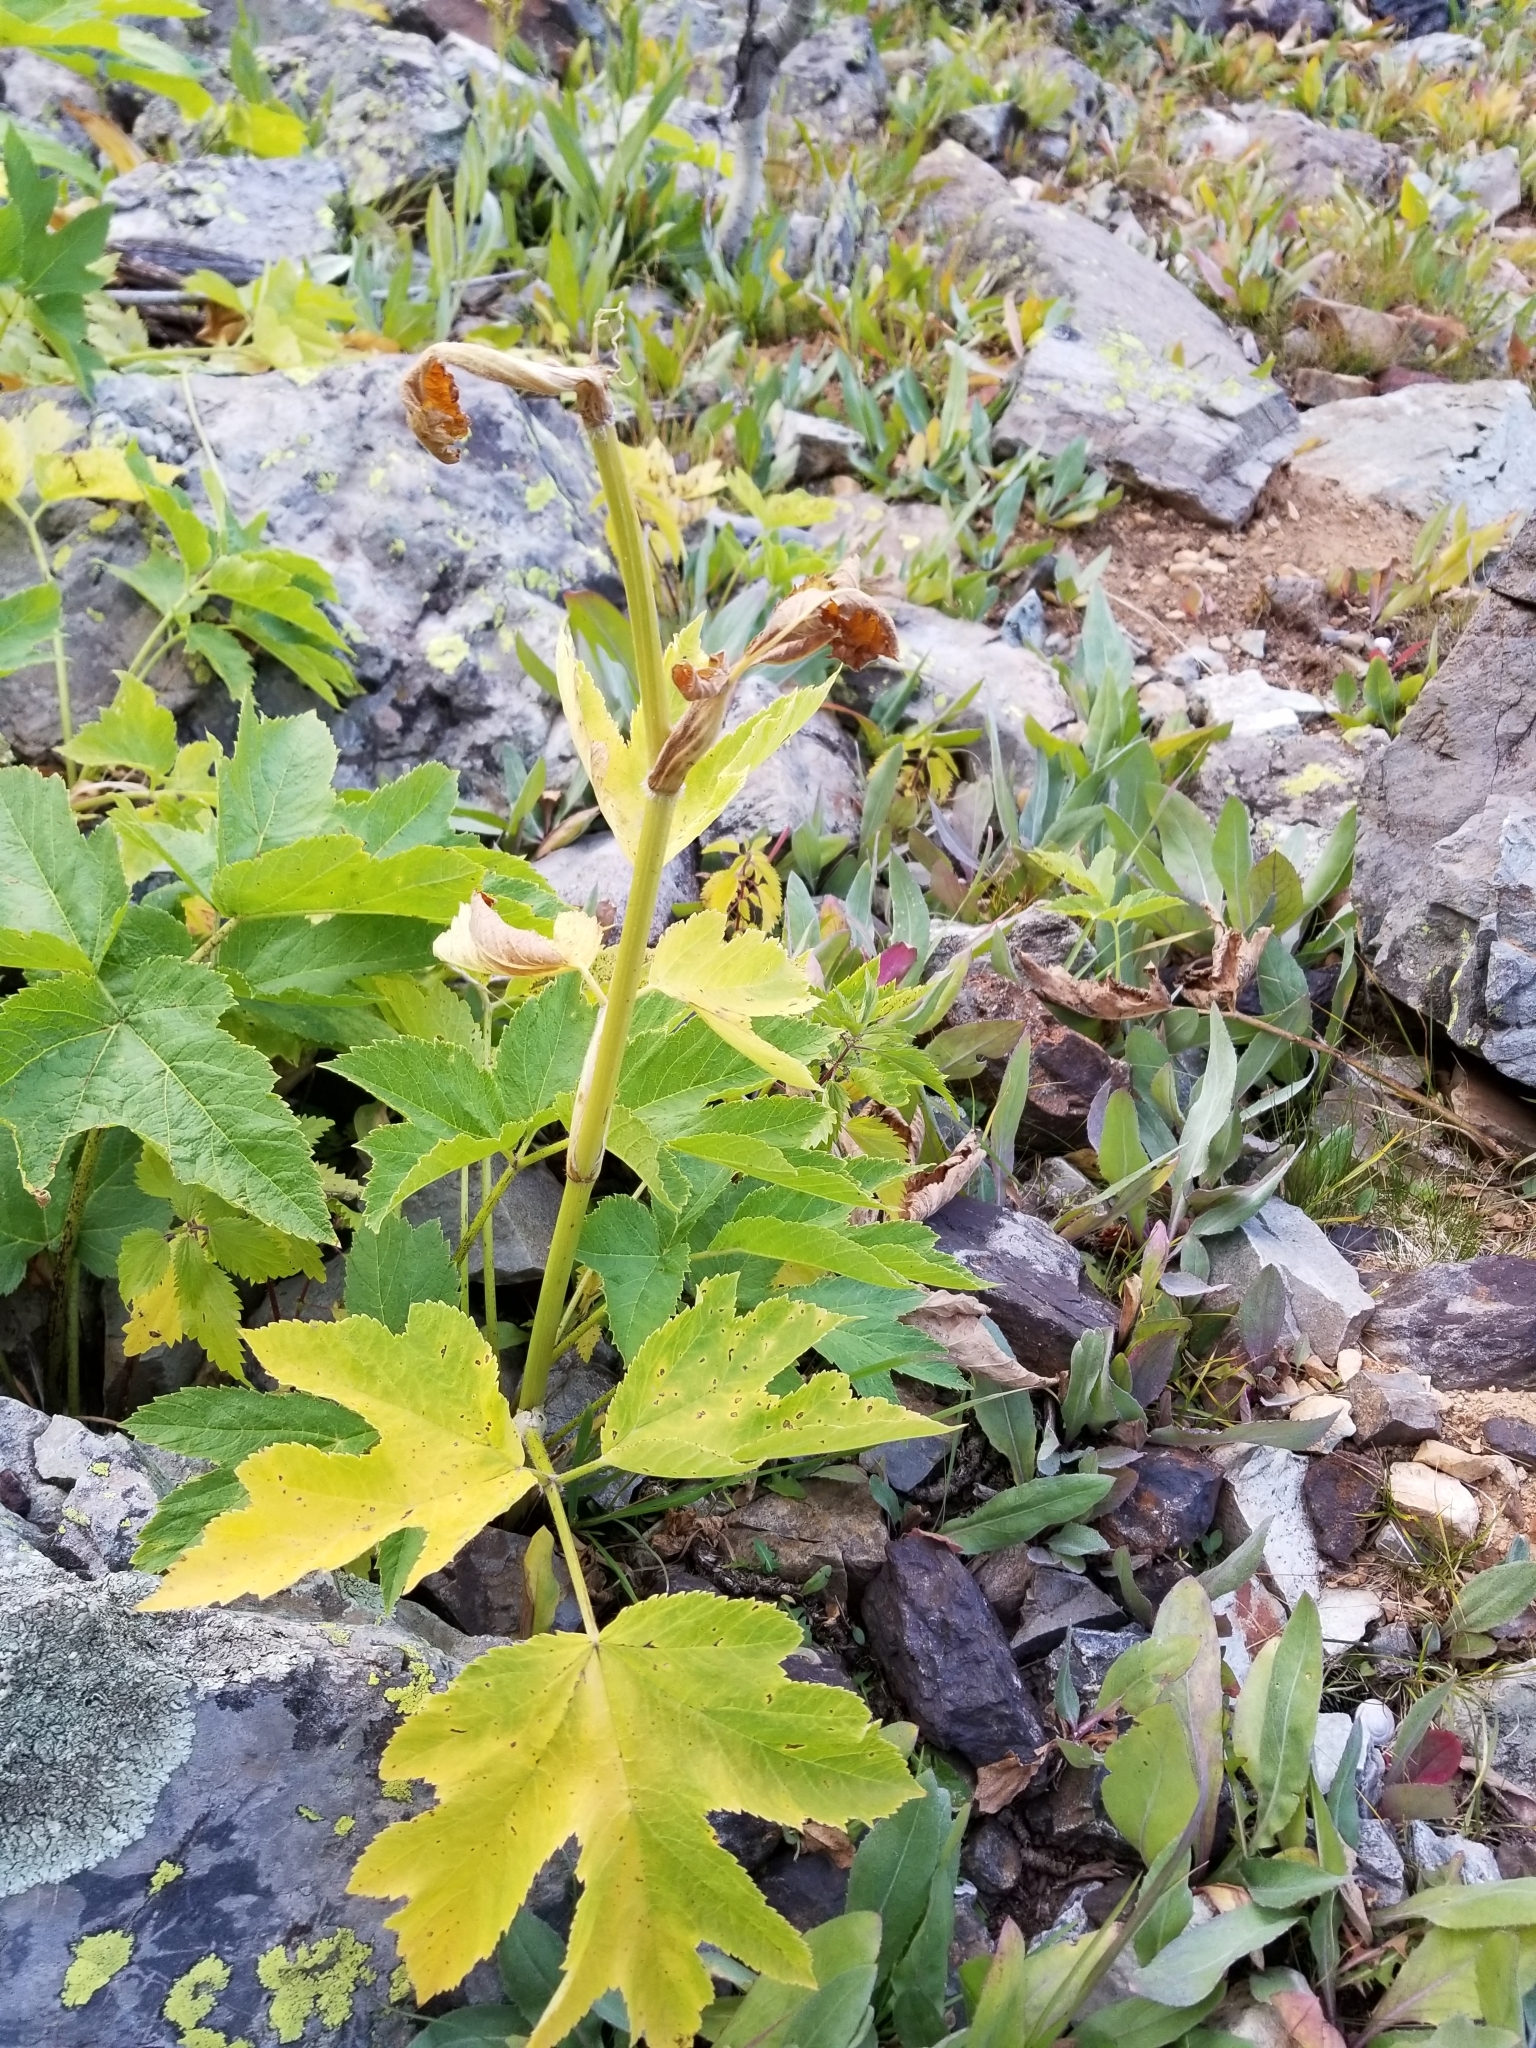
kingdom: Plantae
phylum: Tracheophyta
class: Magnoliopsida
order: Apiales
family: Apiaceae
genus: Heracleum
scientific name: Heracleum maximum
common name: American cow parsnip
